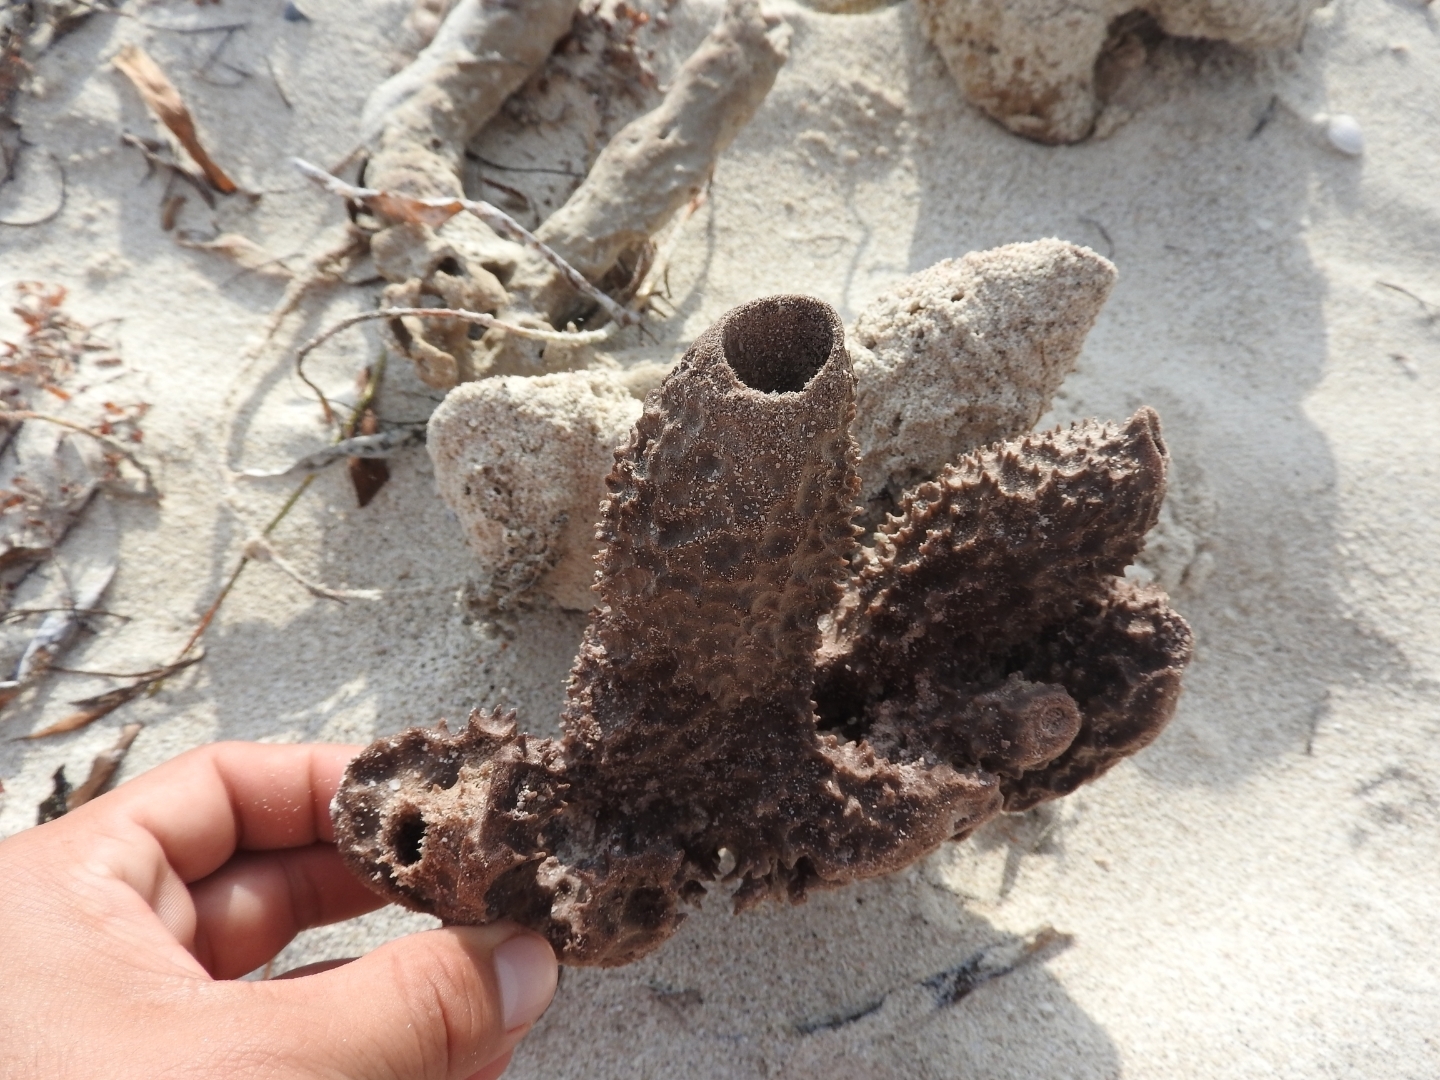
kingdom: Animalia
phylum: Porifera
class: Demospongiae
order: Haplosclerida
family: Callyspongiidae
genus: Callyspongia
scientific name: Callyspongia aculeata
